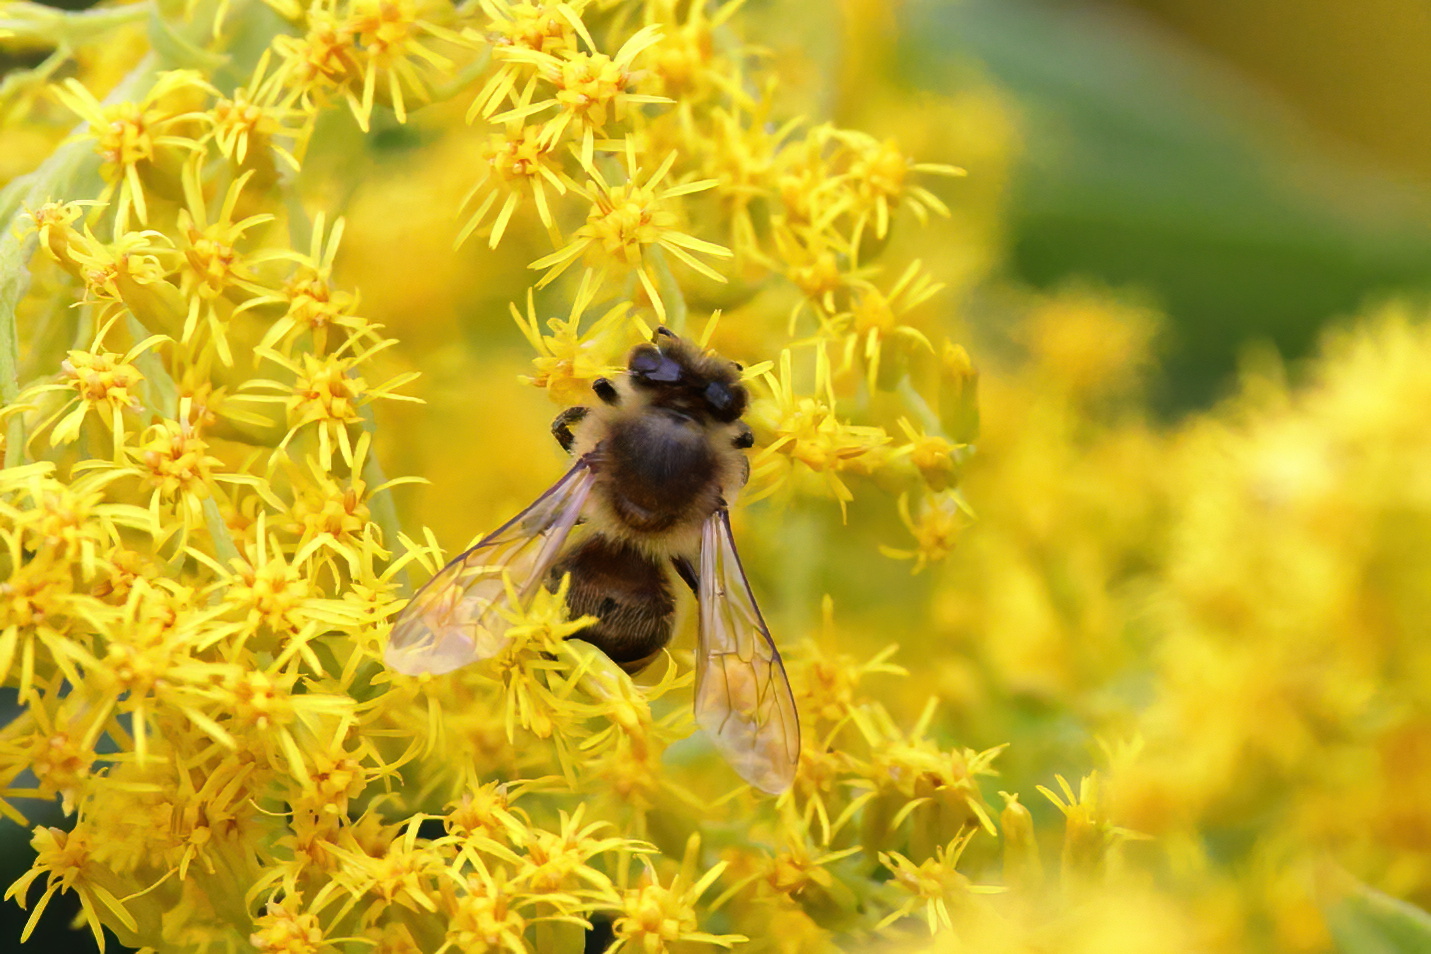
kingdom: Animalia
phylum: Arthropoda
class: Insecta
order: Hymenoptera
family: Apidae
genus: Apis
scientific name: Apis mellifera
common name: Honey bee
